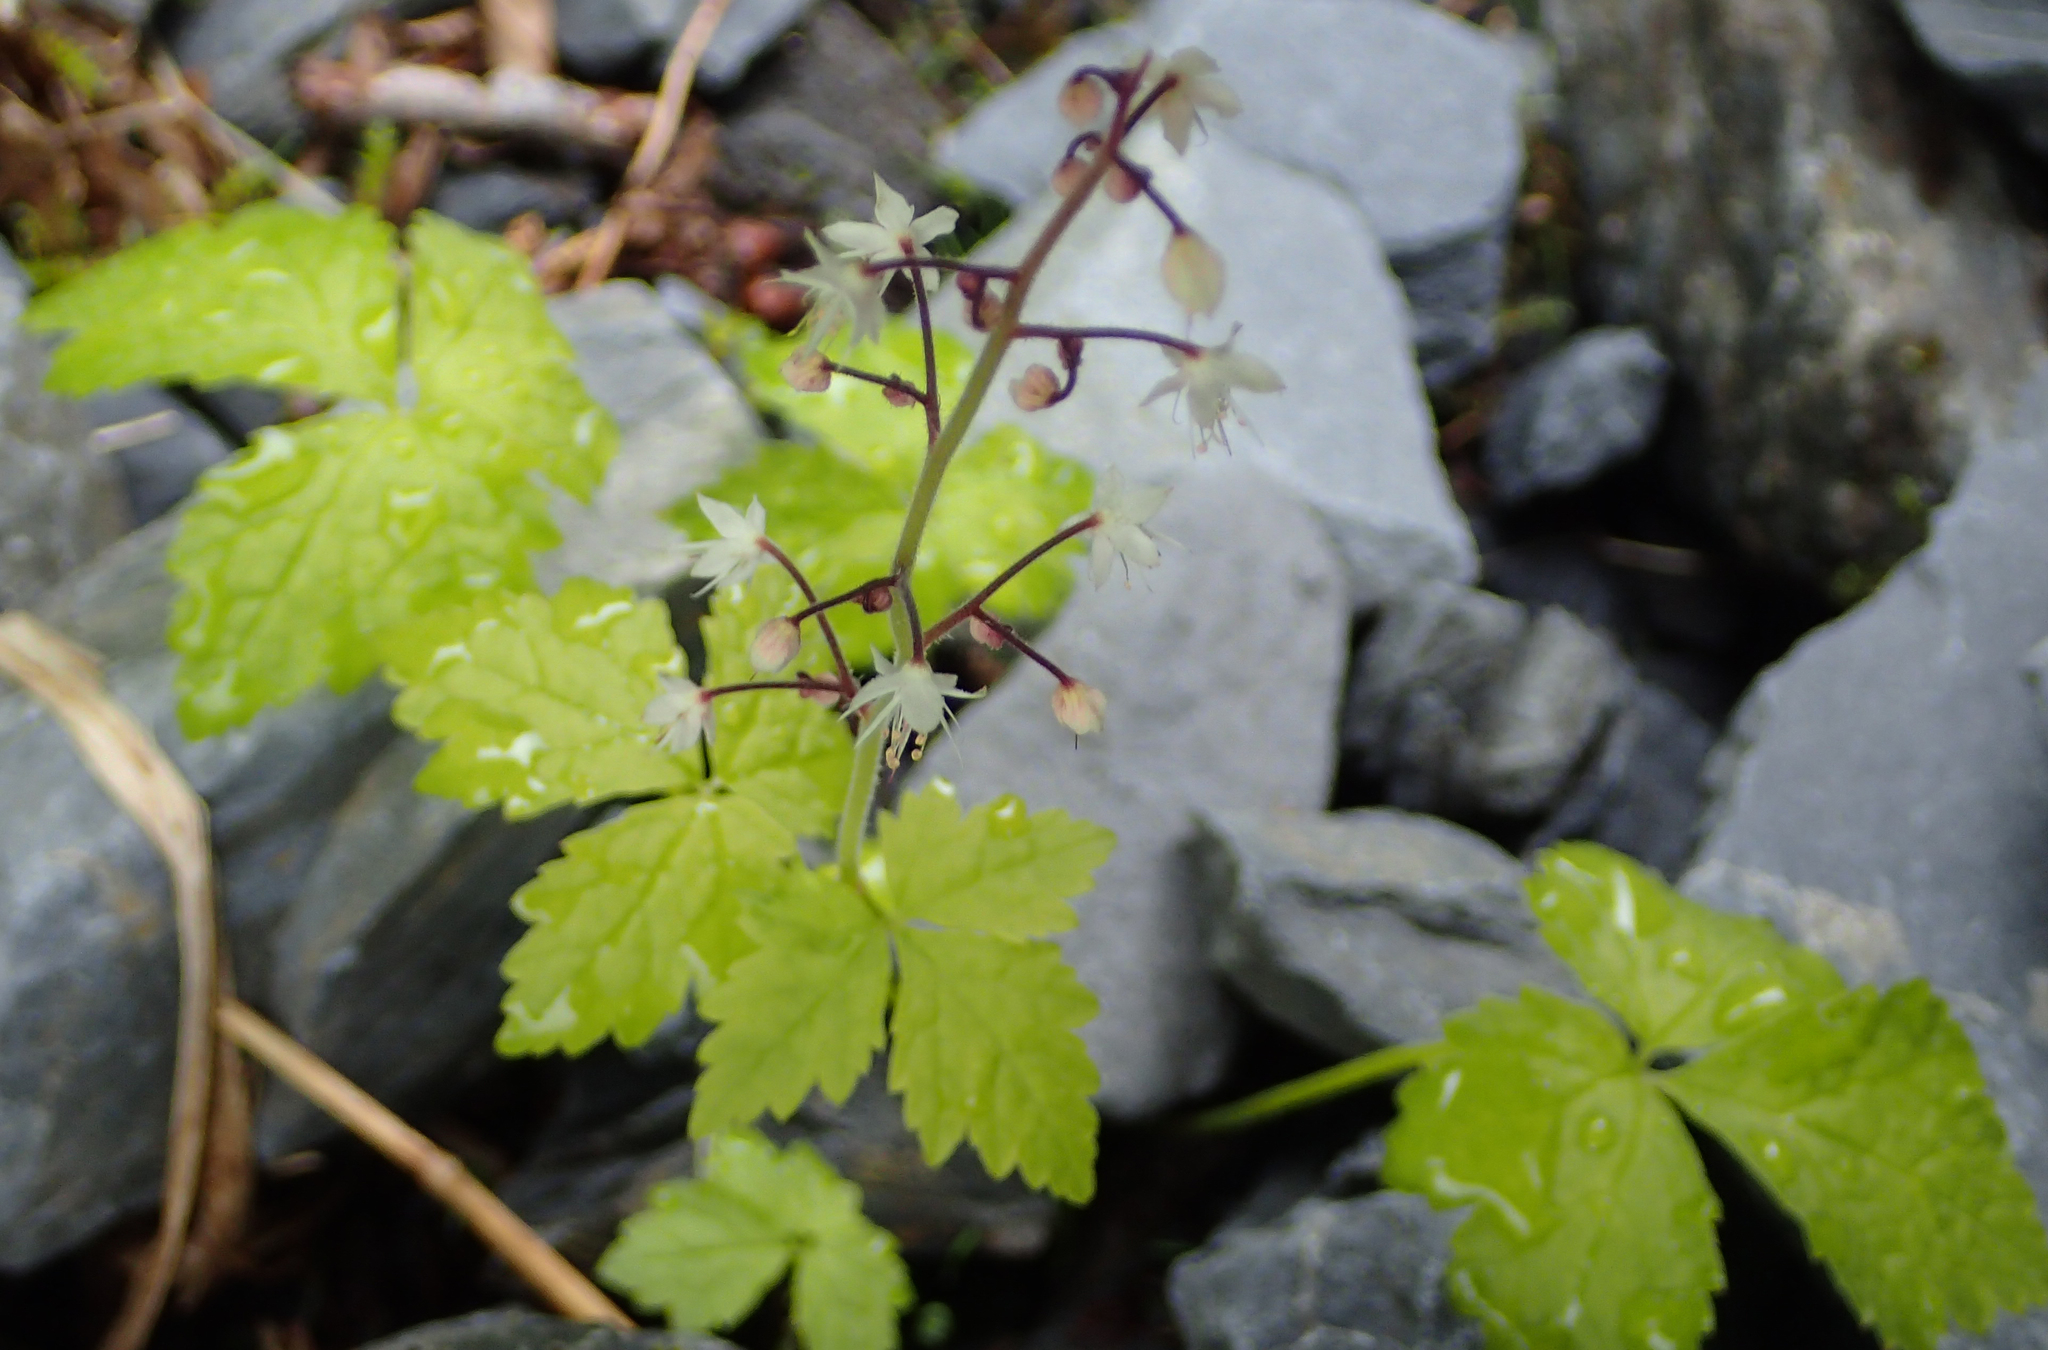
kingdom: Plantae
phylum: Tracheophyta
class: Magnoliopsida
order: Saxifragales
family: Saxifragaceae
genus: Tiarella
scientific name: Tiarella trifoliata
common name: Sugar-scoop
